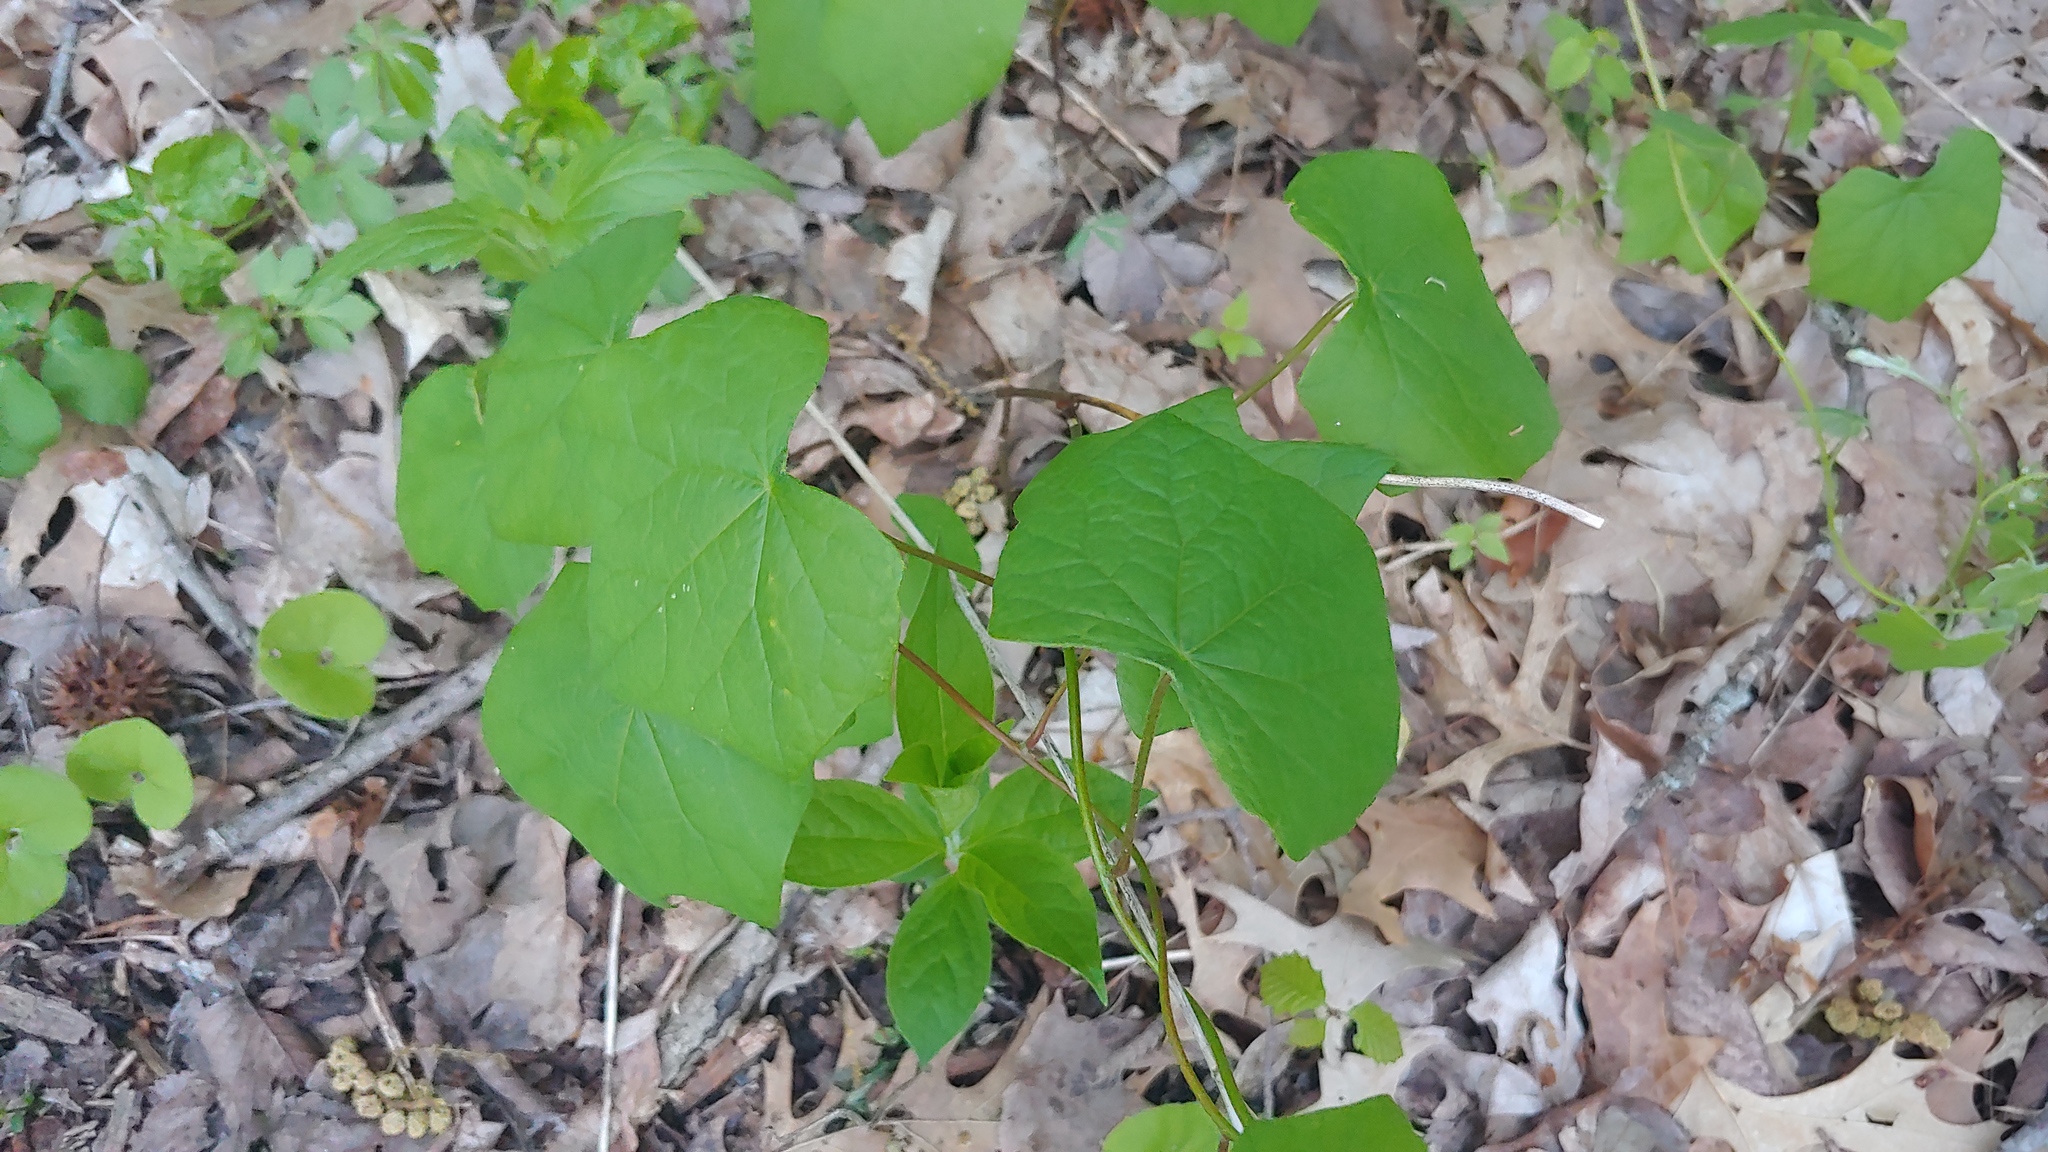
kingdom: Plantae
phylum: Tracheophyta
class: Magnoliopsida
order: Ranunculales
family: Menispermaceae
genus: Menispermum
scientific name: Menispermum canadense
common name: Moonseed
